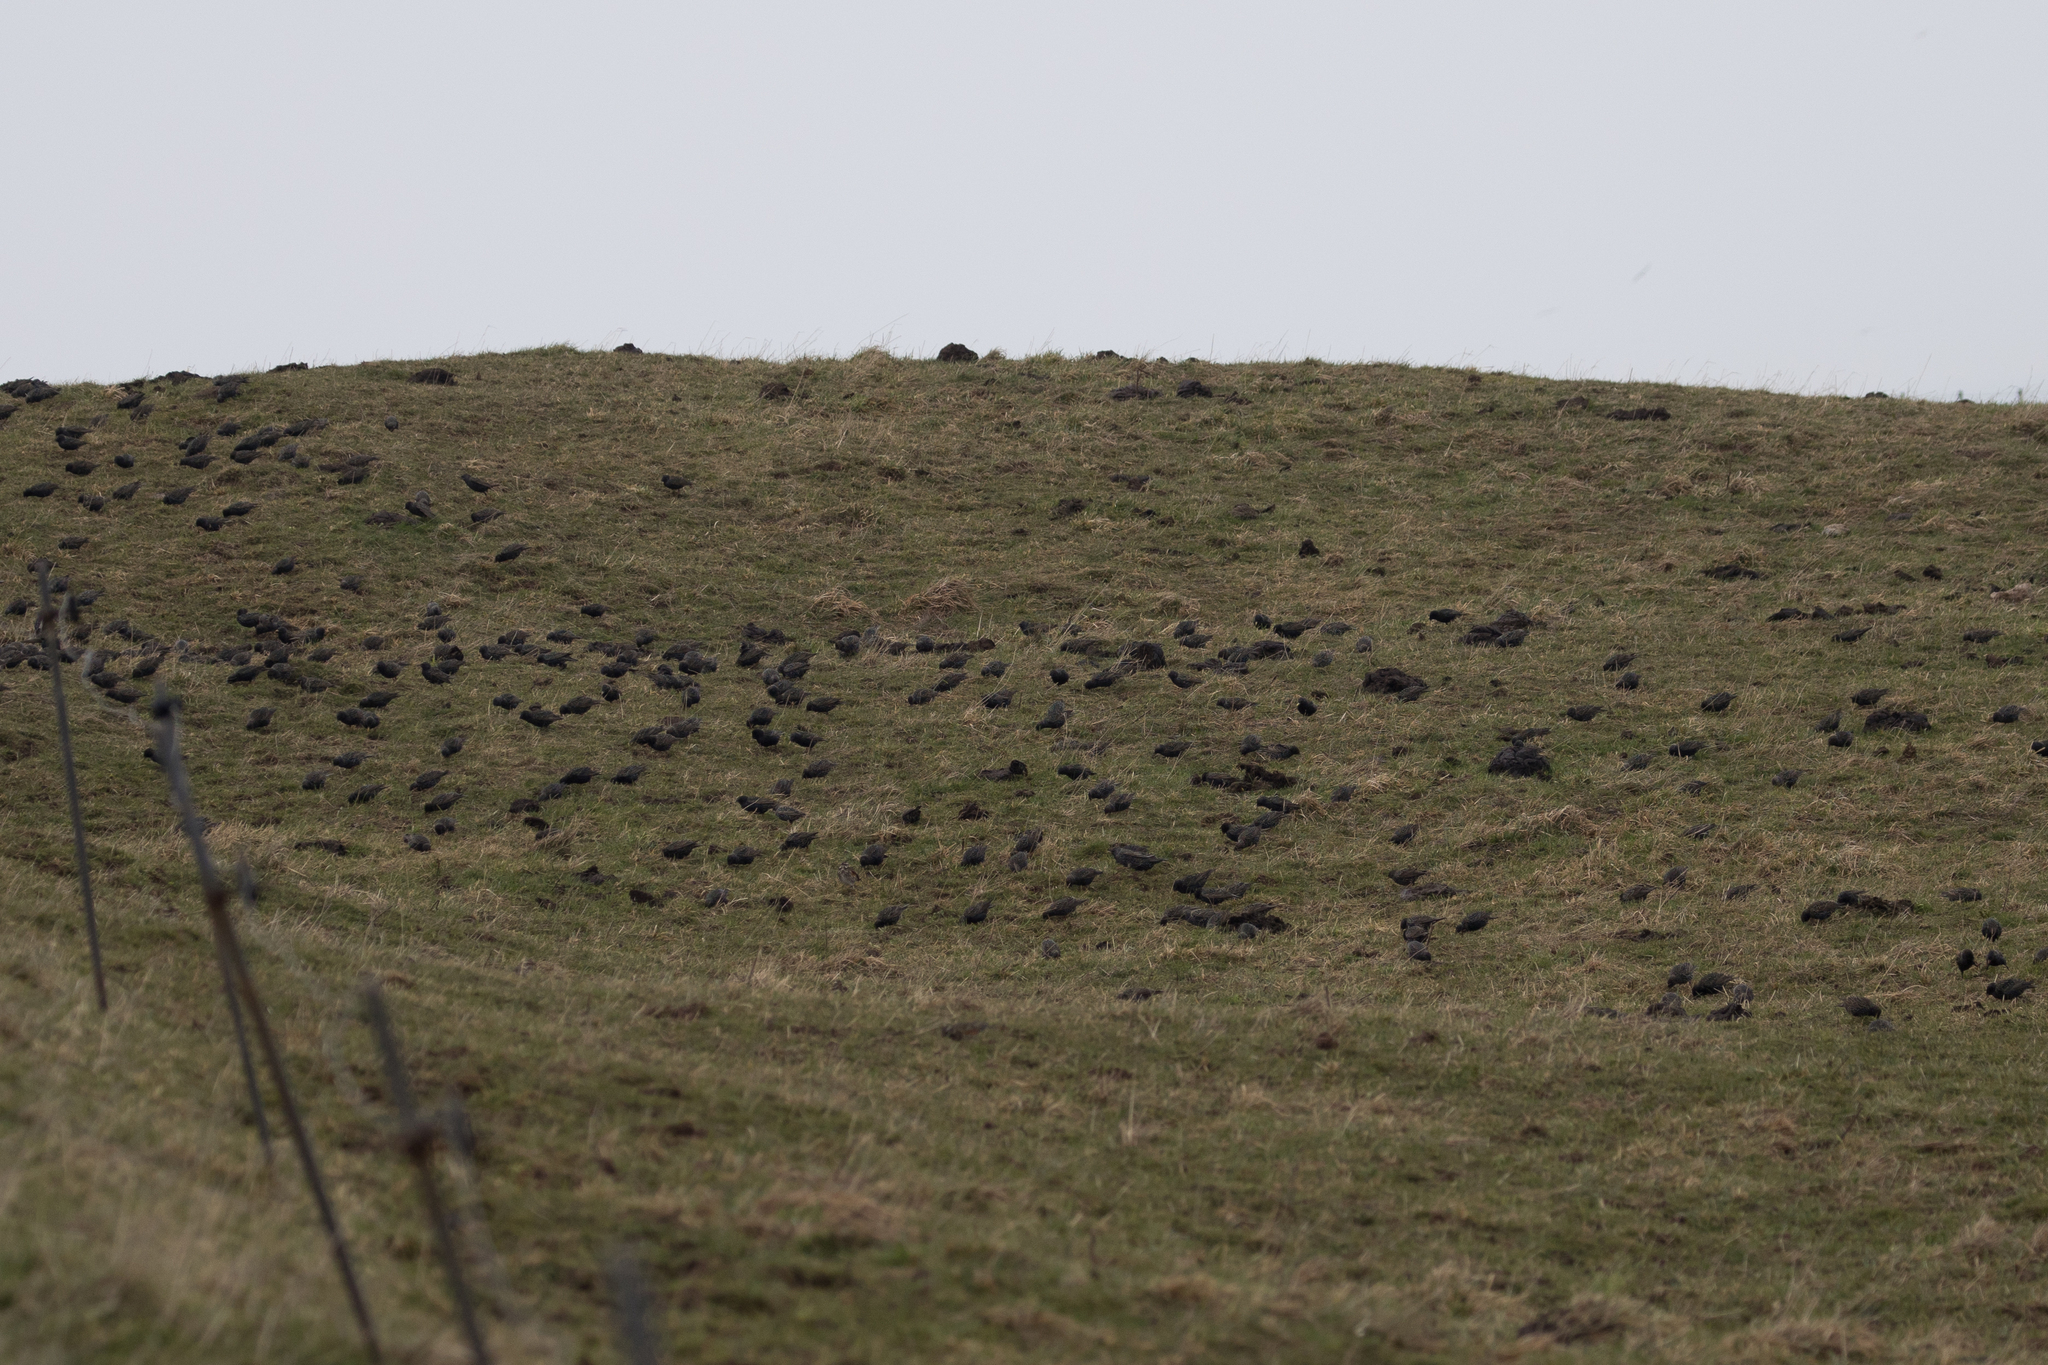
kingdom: Animalia
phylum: Chordata
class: Aves
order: Passeriformes
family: Sturnidae
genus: Sturnus
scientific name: Sturnus vulgaris
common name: Common starling
